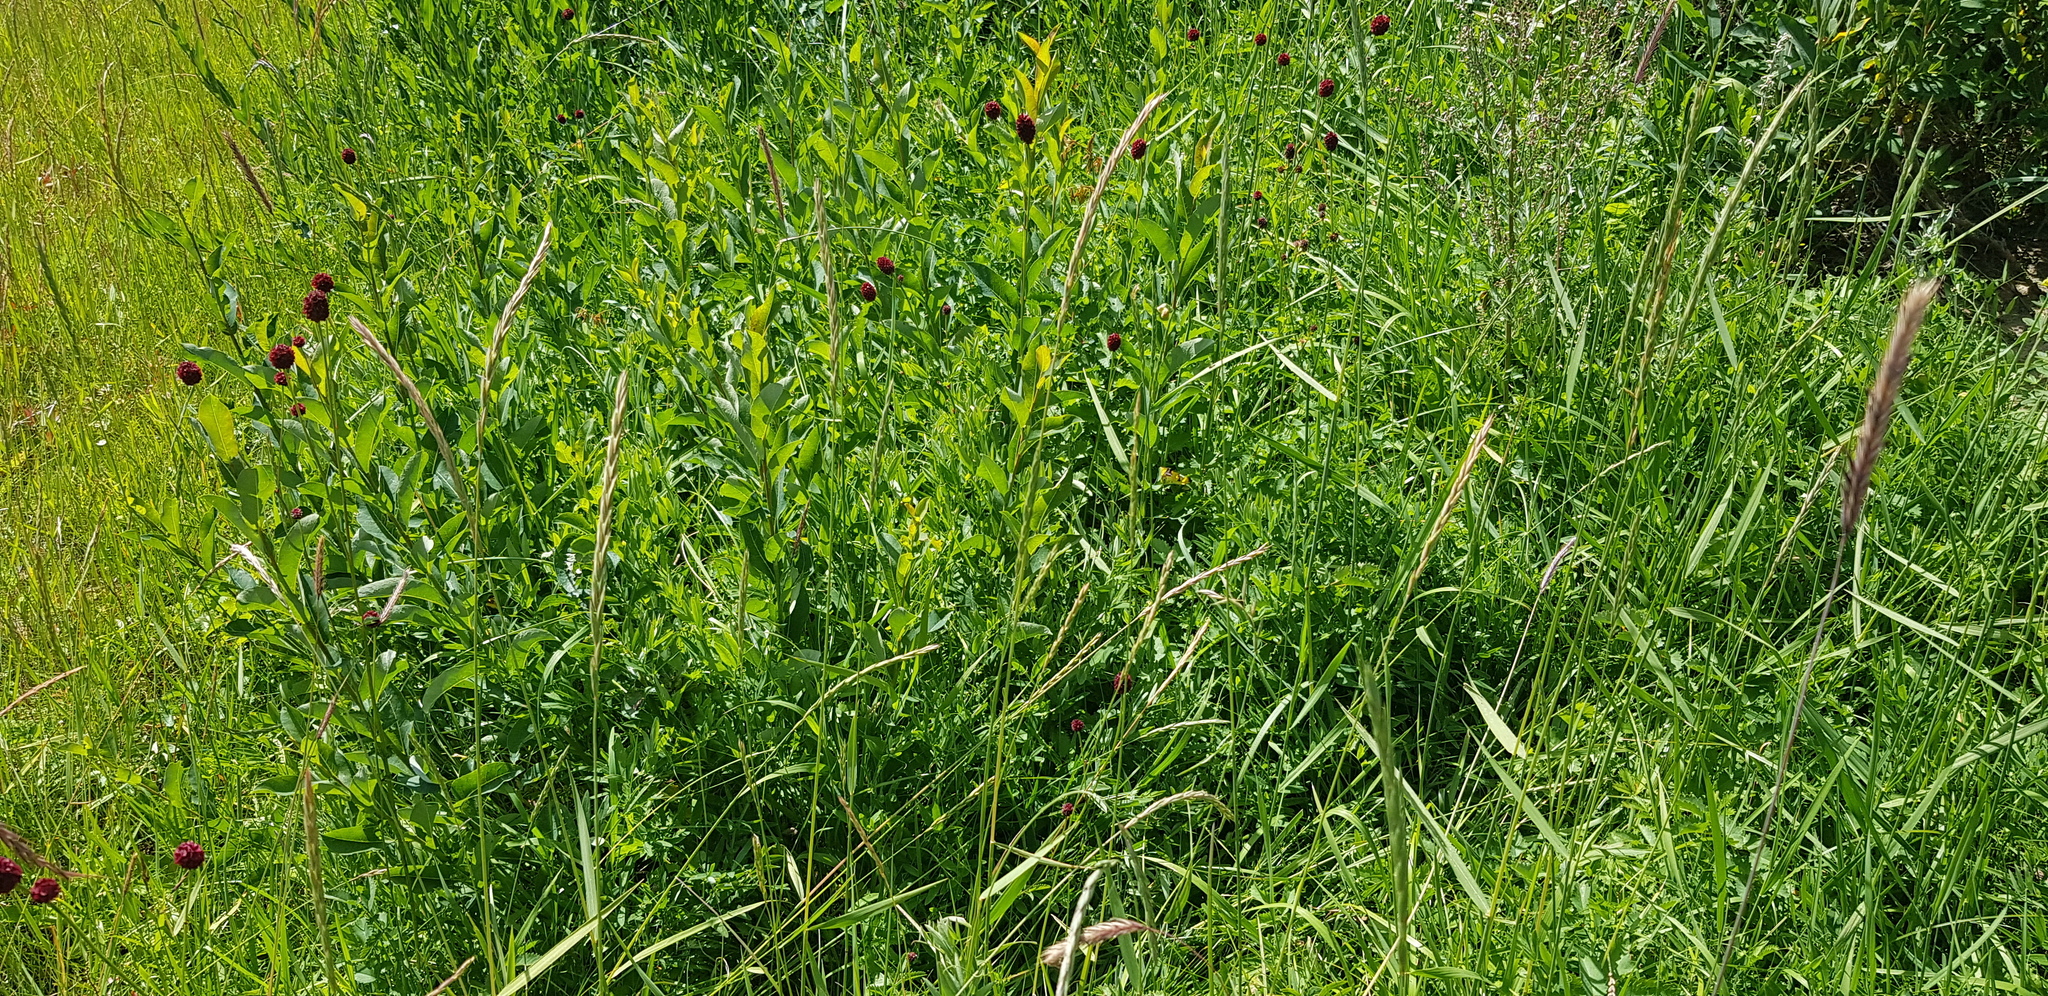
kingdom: Plantae
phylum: Tracheophyta
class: Magnoliopsida
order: Rosales
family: Rosaceae
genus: Sanguisorba
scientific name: Sanguisorba officinalis
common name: Great burnet
